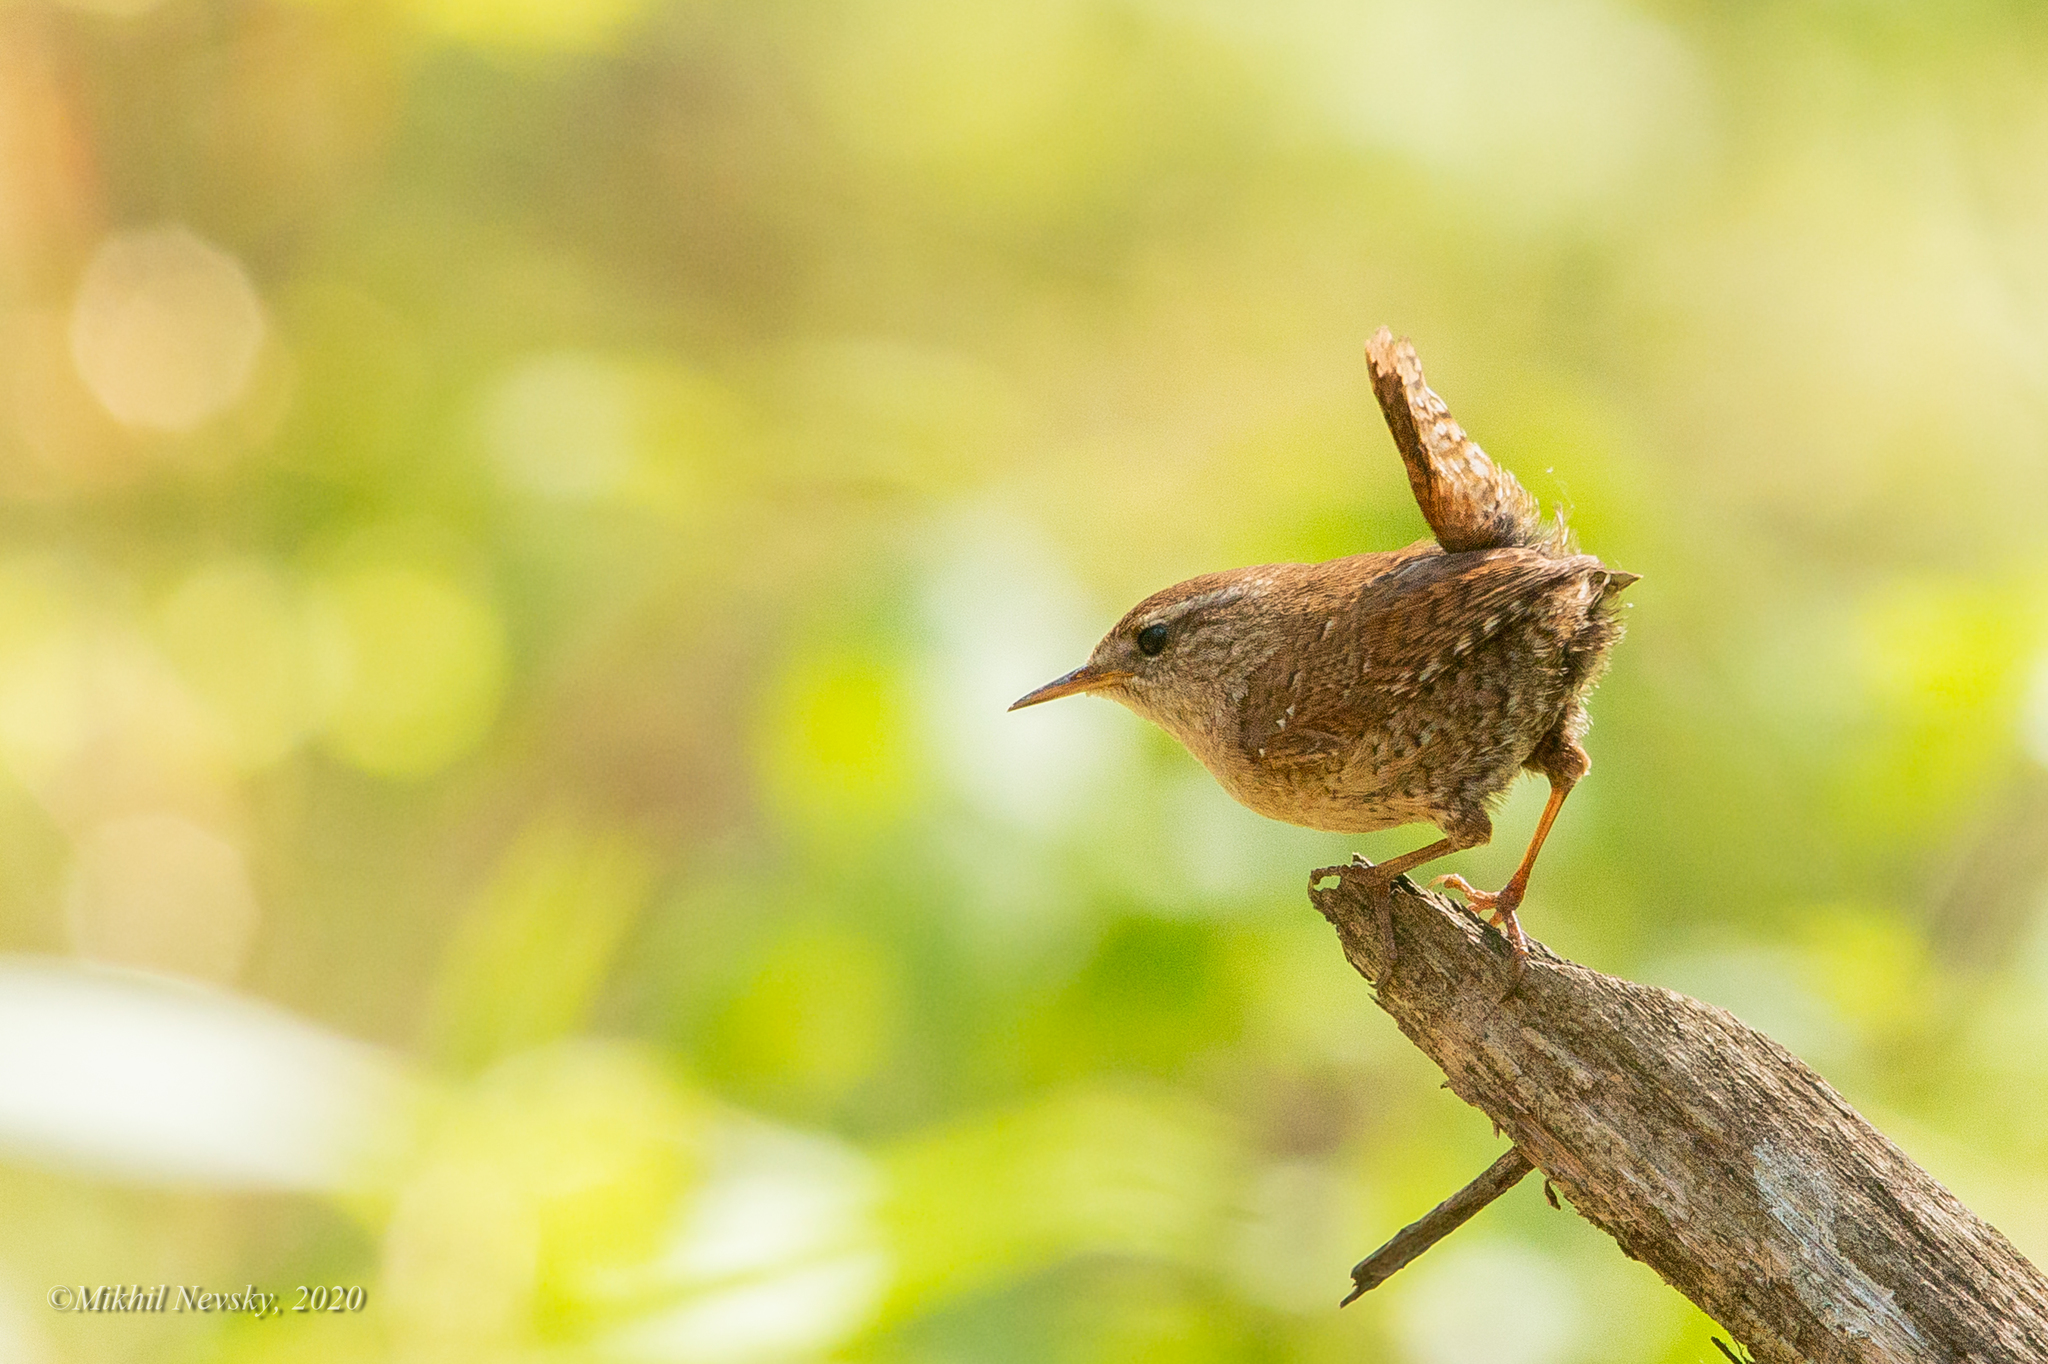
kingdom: Animalia
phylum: Chordata
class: Aves
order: Passeriformes
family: Troglodytidae
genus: Troglodytes
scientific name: Troglodytes troglodytes
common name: Eurasian wren
